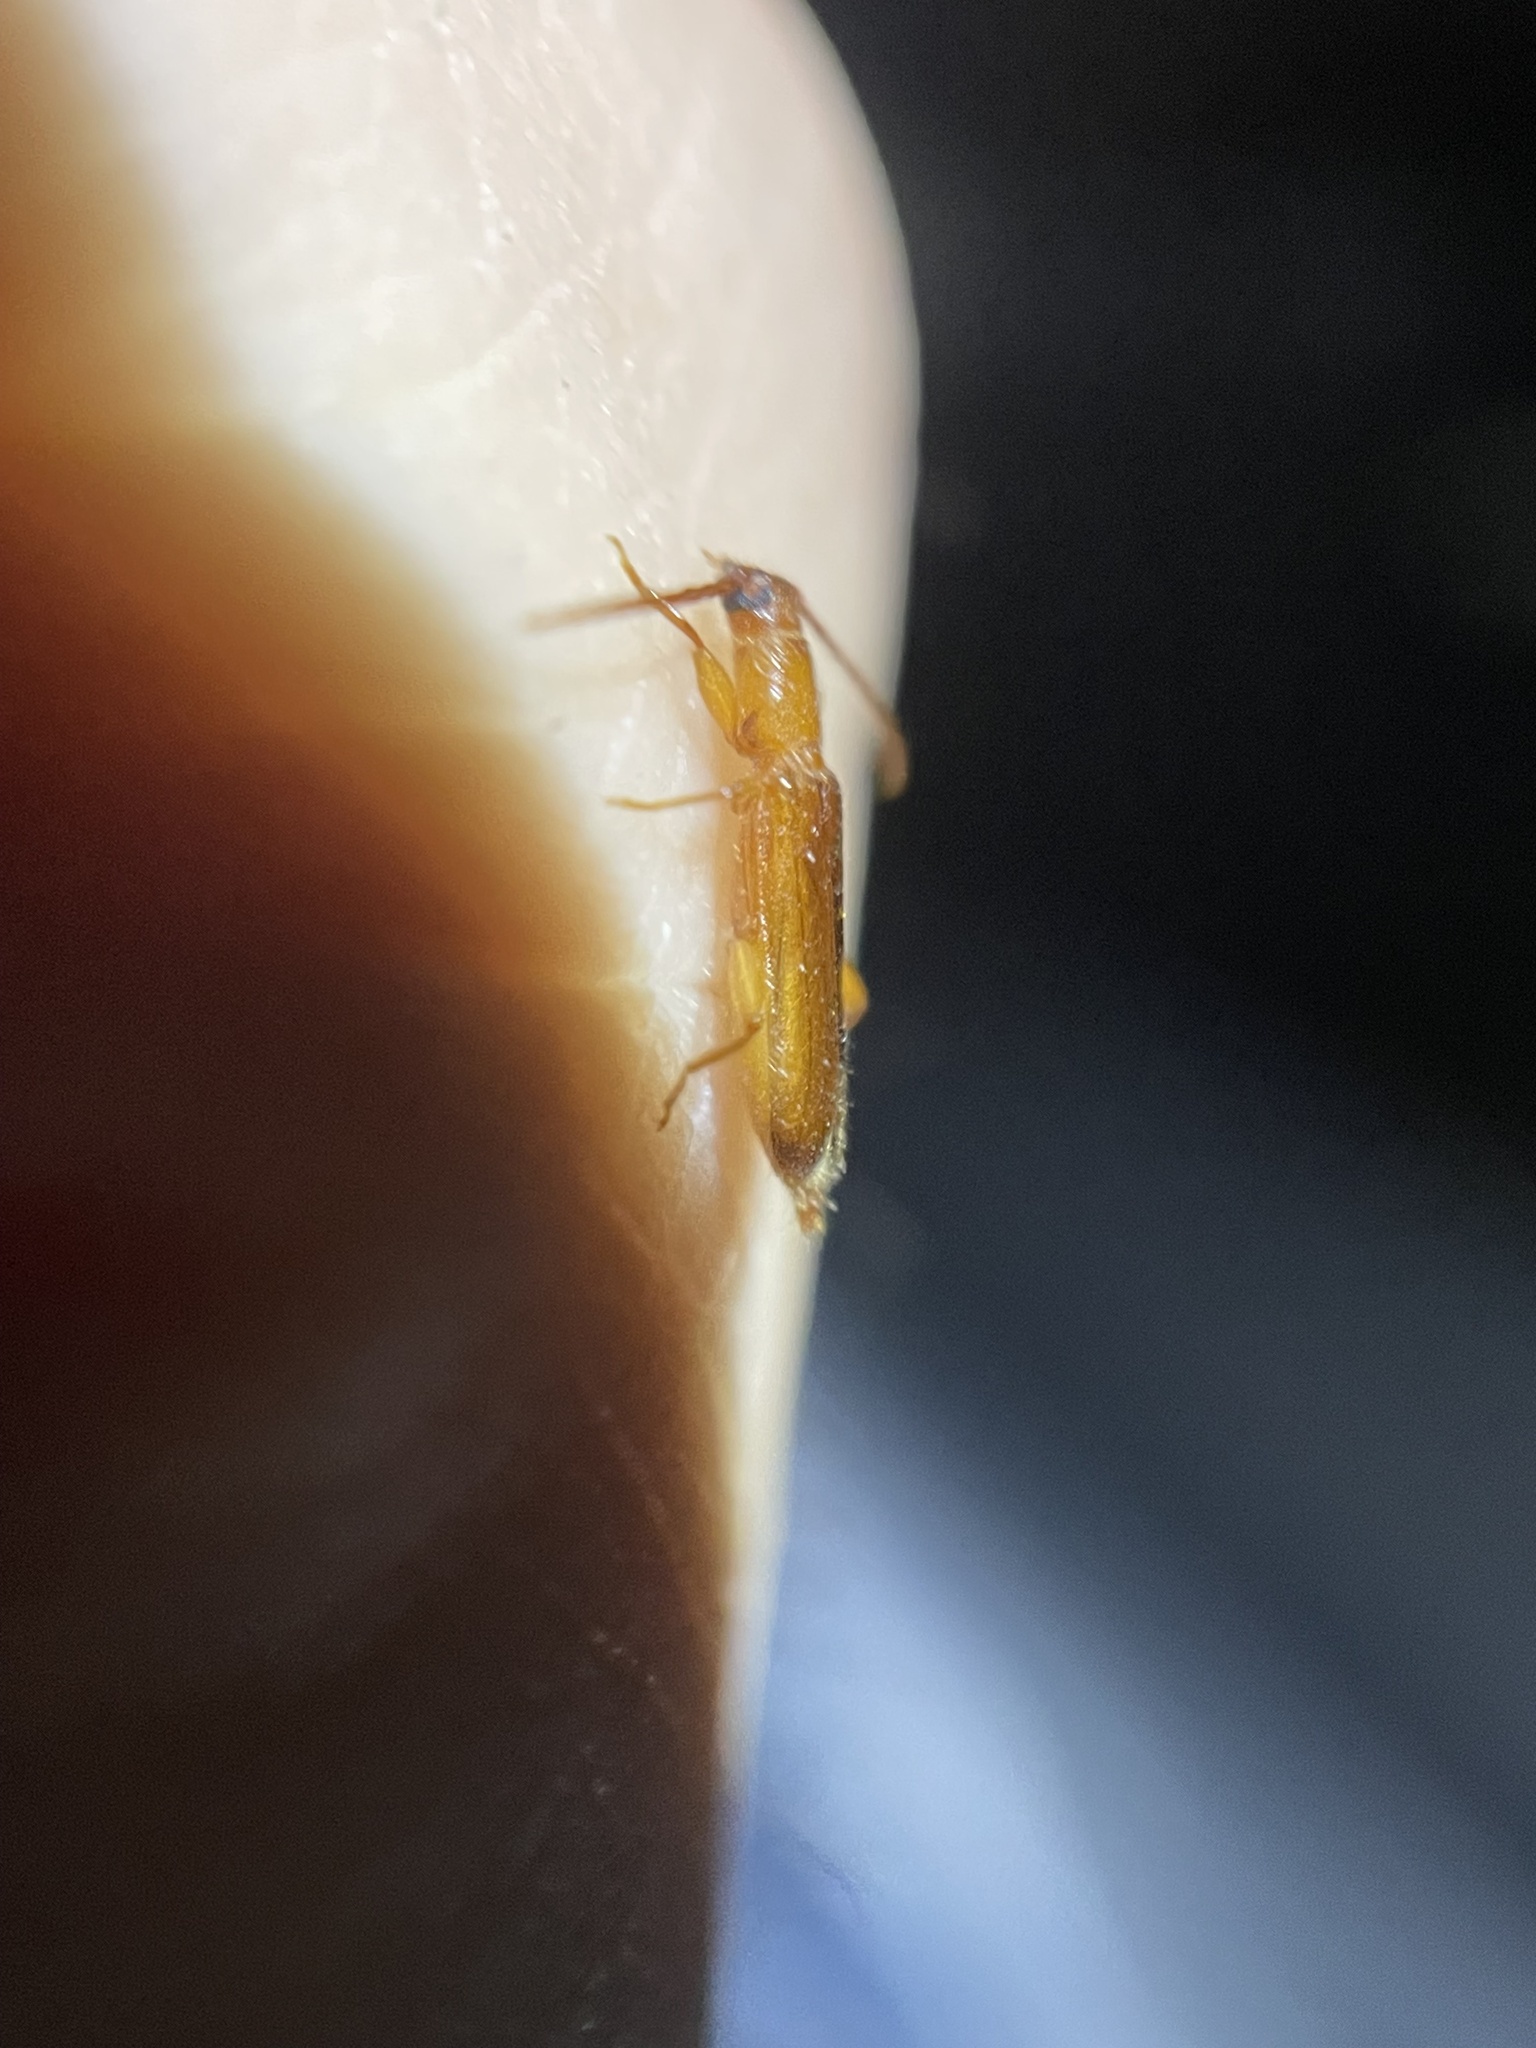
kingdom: Animalia
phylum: Arthropoda
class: Insecta
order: Coleoptera
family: Cerambycidae
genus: Smodicum
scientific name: Smodicum cucujiforme
